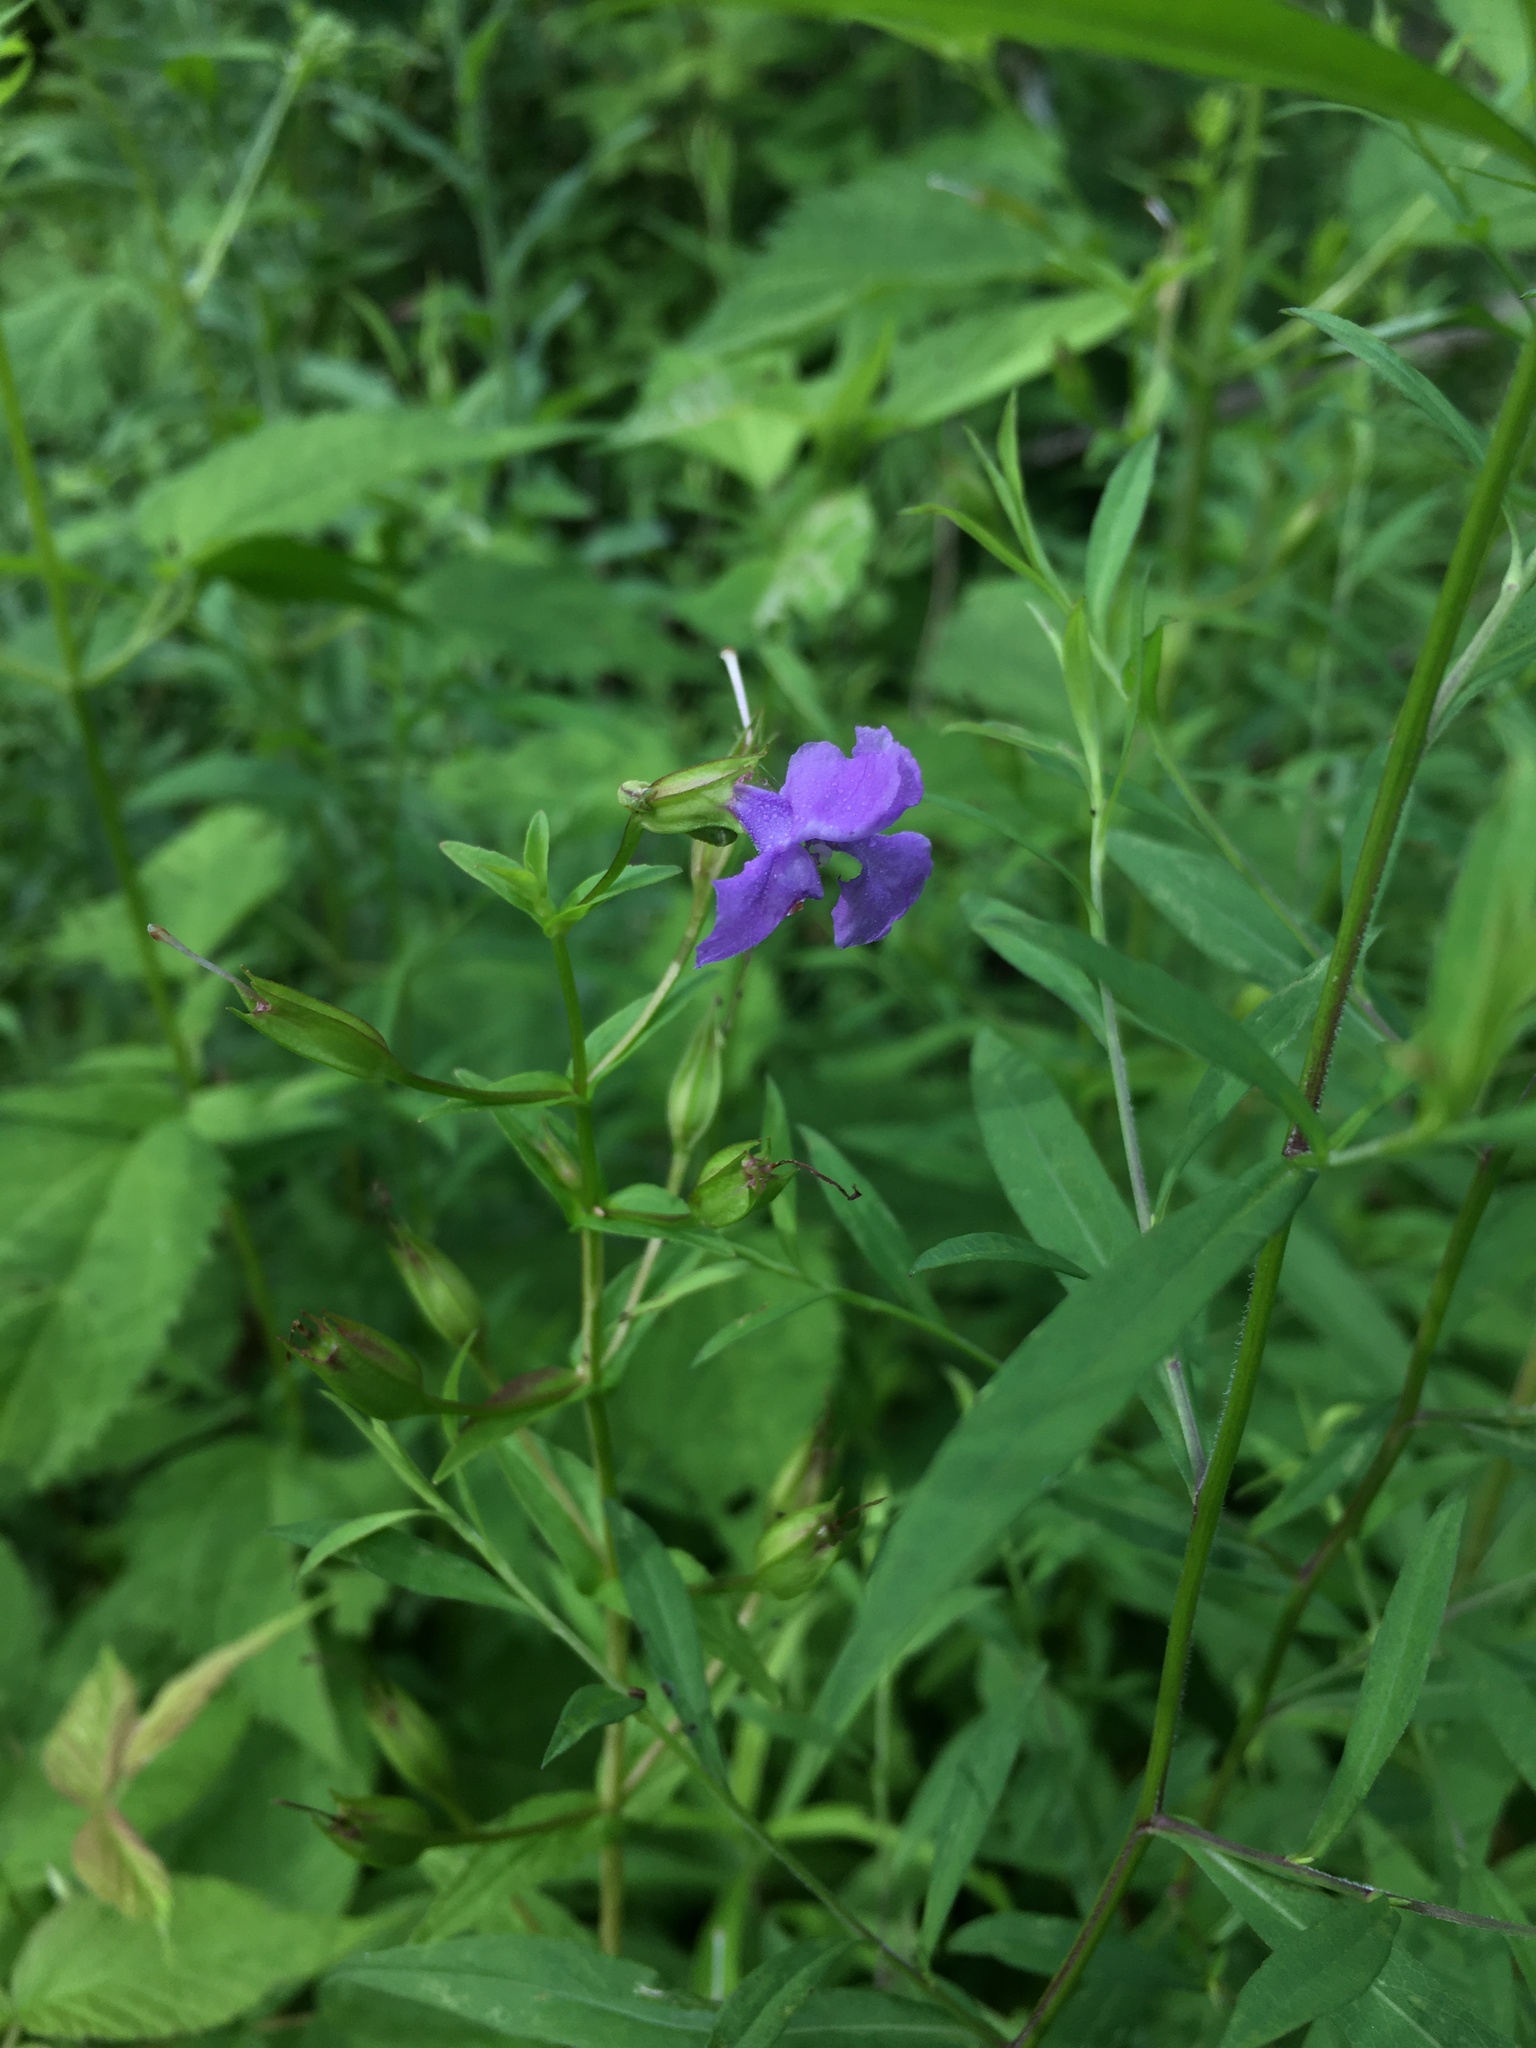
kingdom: Plantae
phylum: Tracheophyta
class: Magnoliopsida
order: Lamiales
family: Phrymaceae
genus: Mimulus
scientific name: Mimulus ringens
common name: Allegheny monkeyflower
